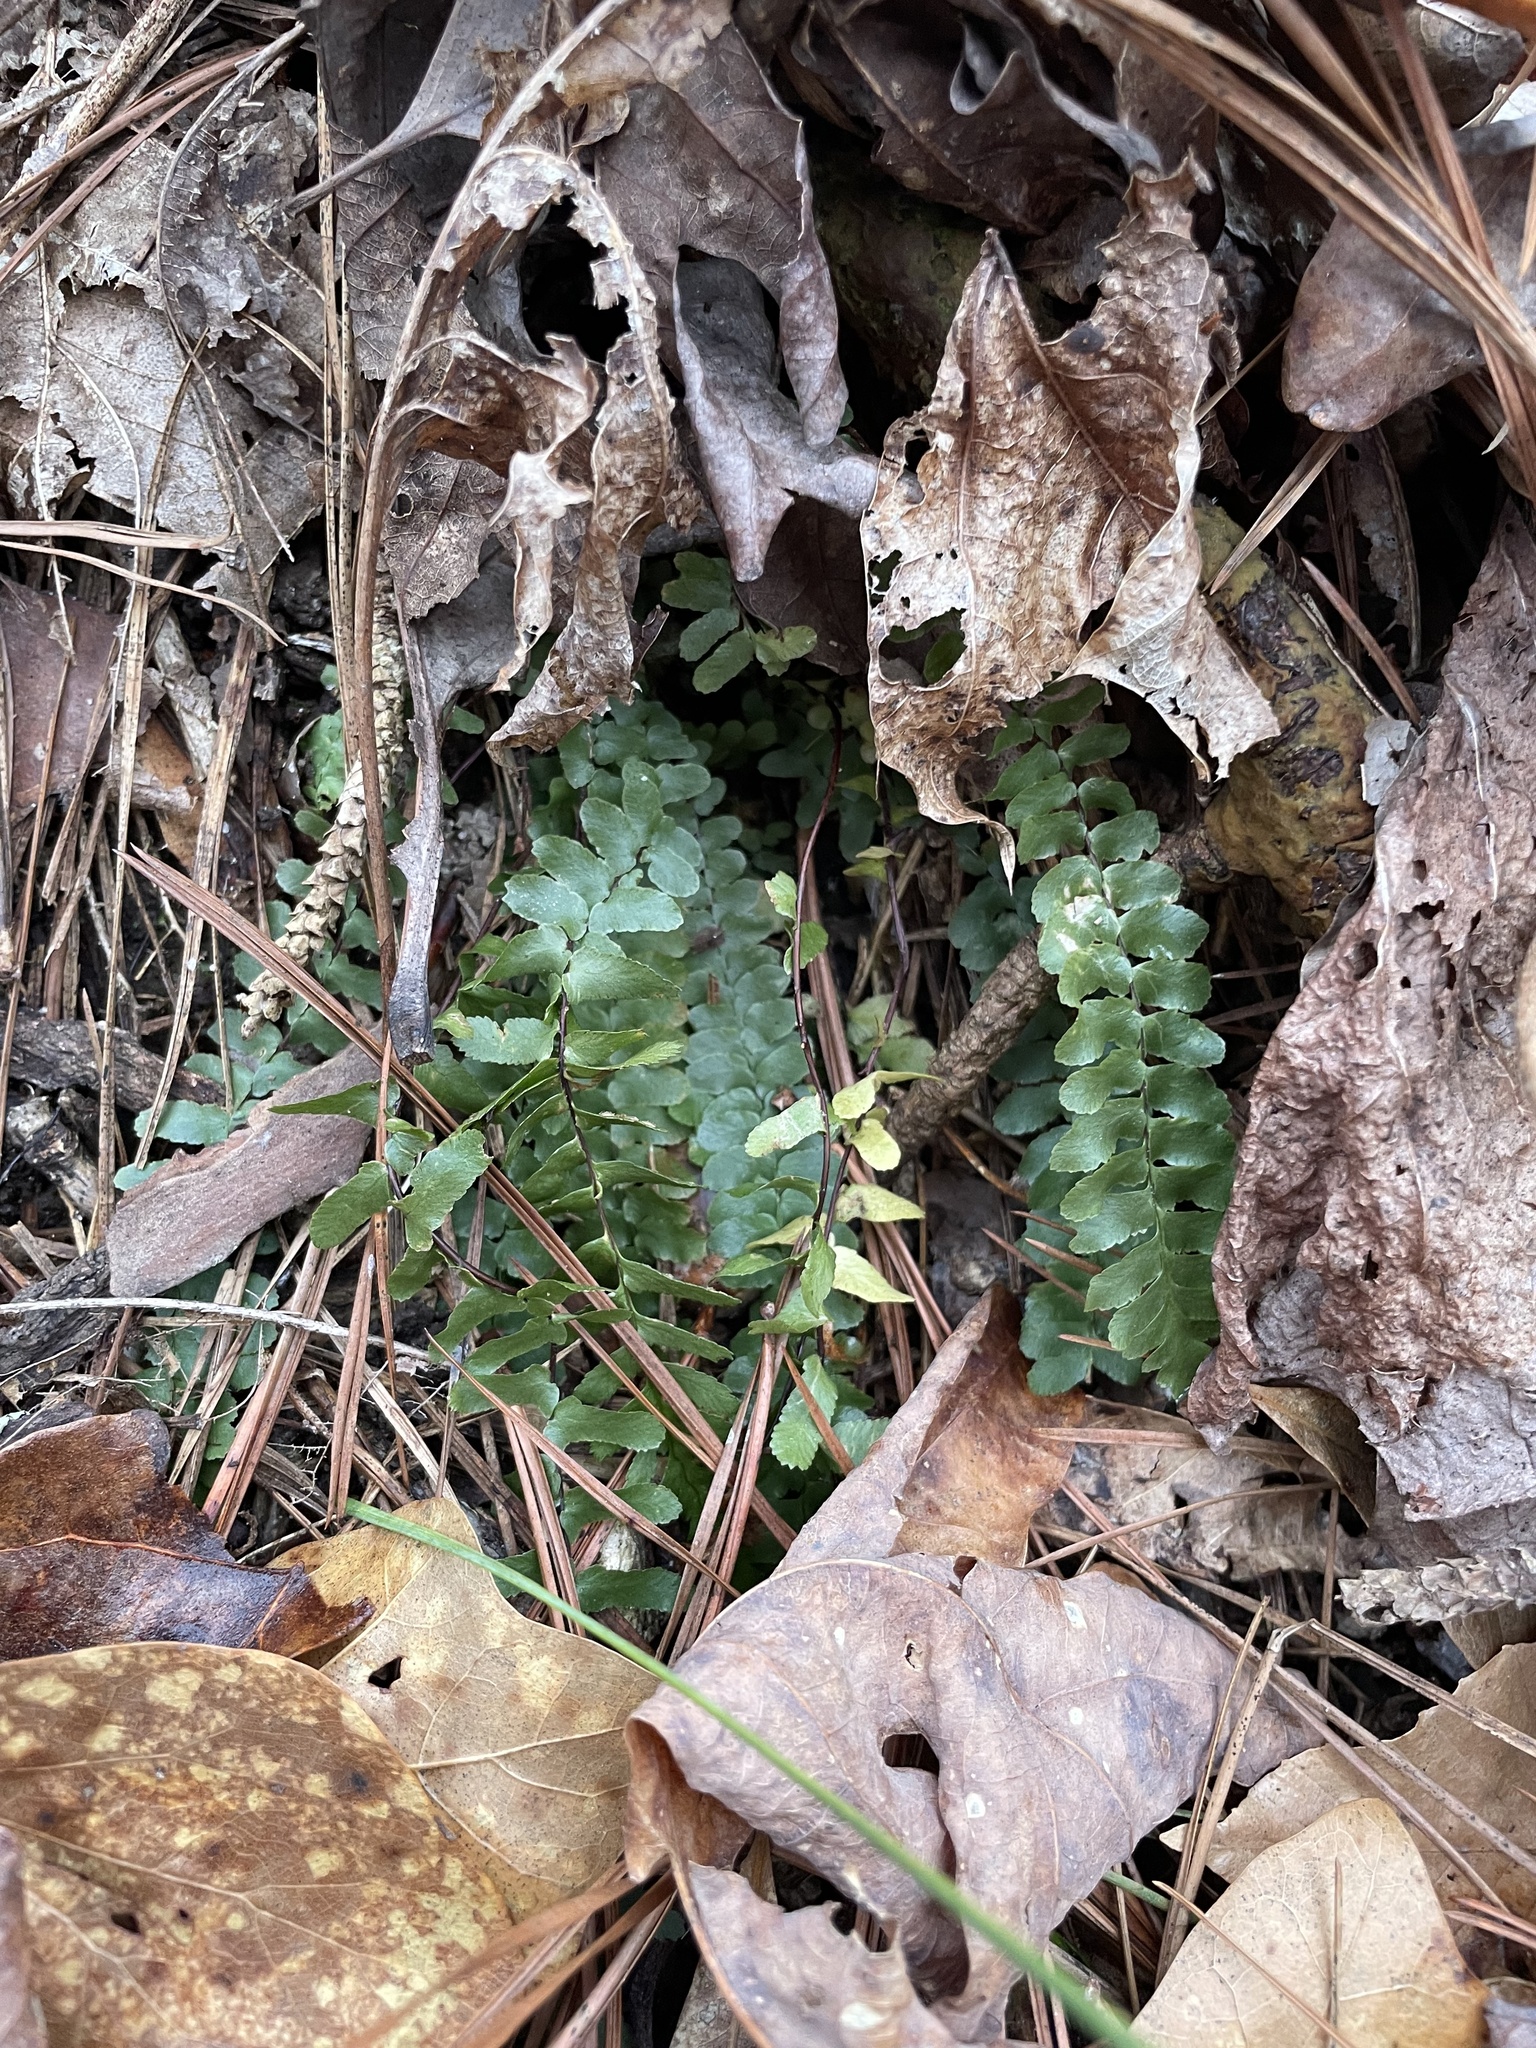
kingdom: Plantae
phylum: Tracheophyta
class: Polypodiopsida
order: Polypodiales
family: Aspleniaceae
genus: Asplenium
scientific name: Asplenium platyneuron
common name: Ebony spleenwort
